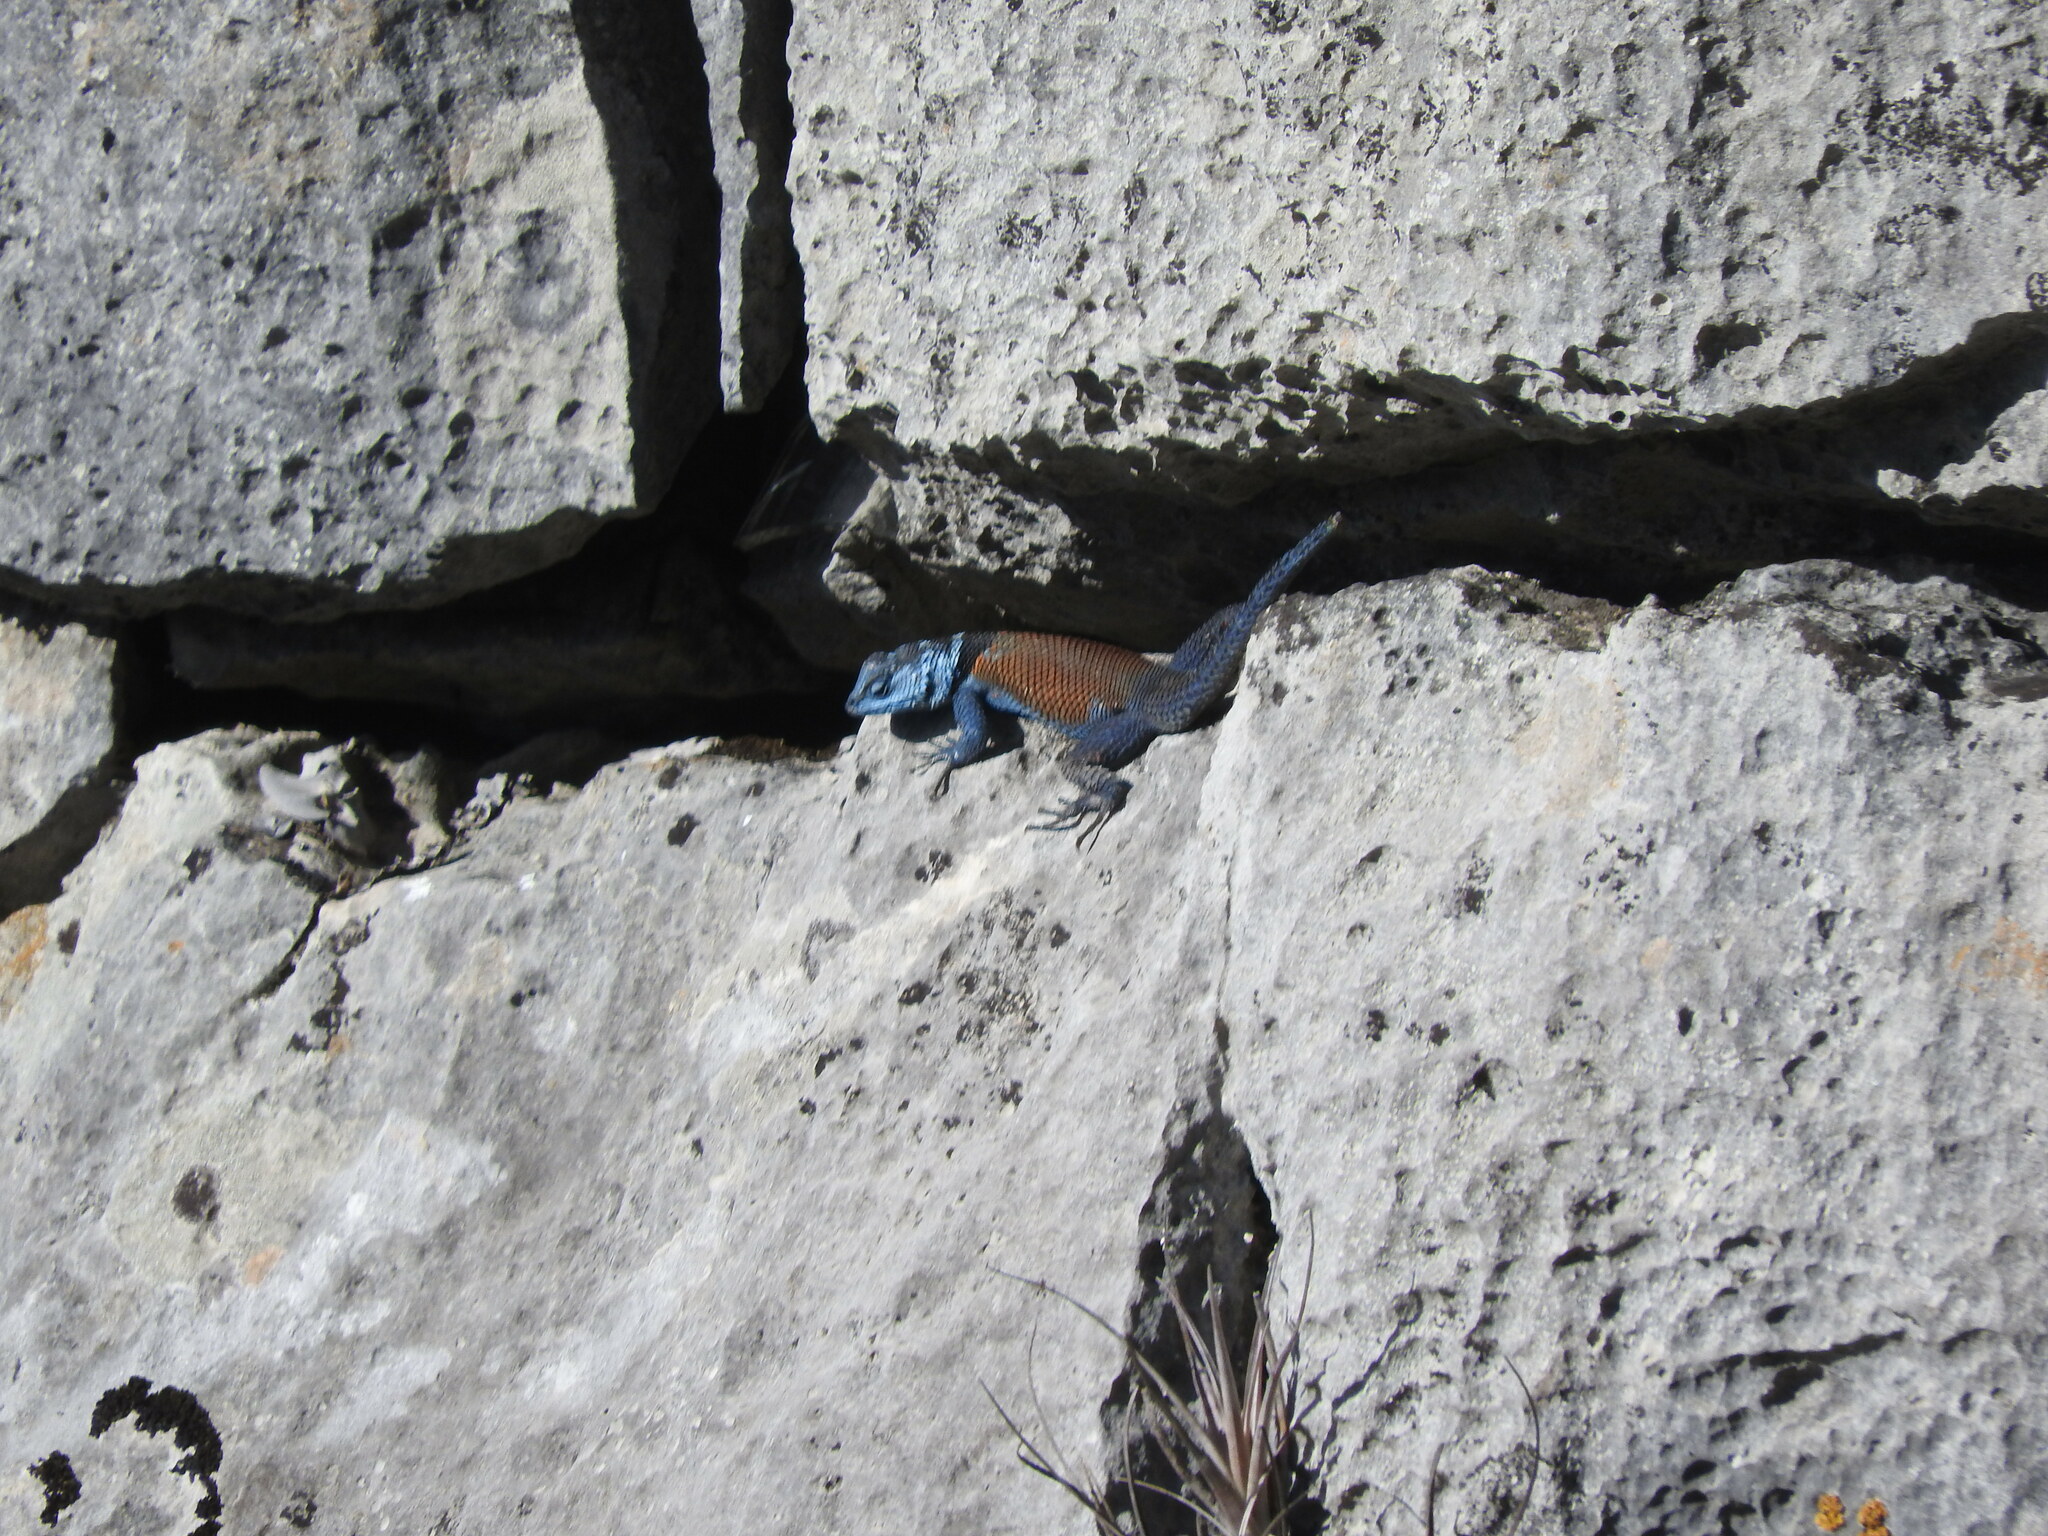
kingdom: Animalia
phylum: Chordata
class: Squamata
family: Phrynosomatidae
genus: Sceloporus
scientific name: Sceloporus minor
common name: Minor lizard
